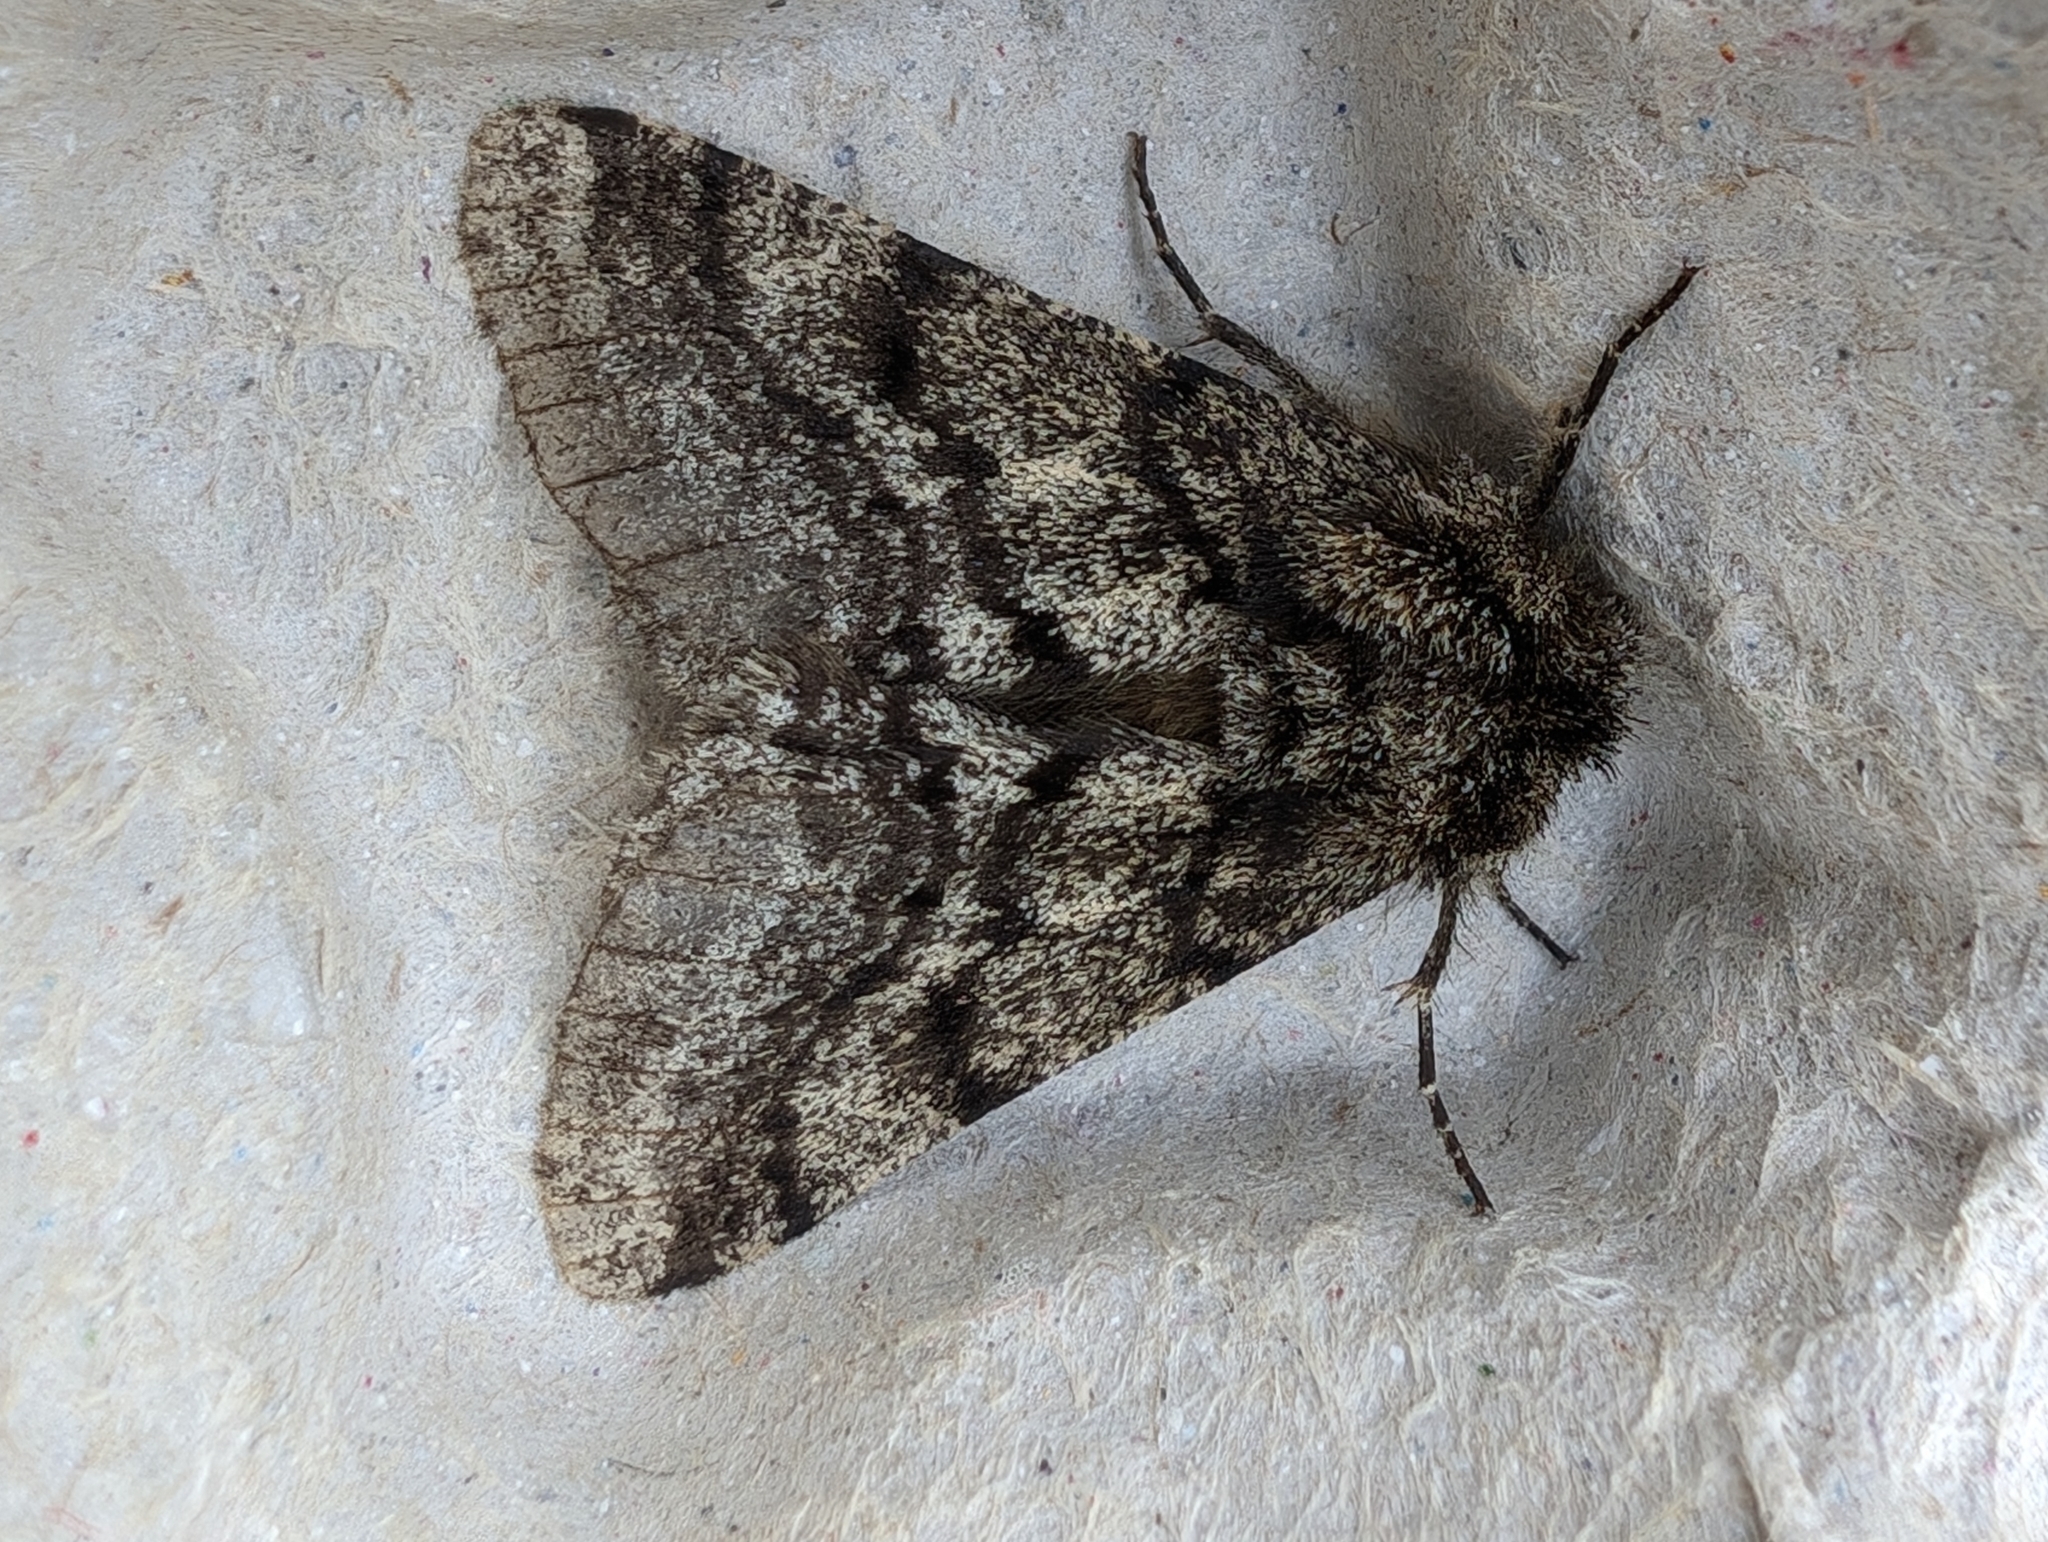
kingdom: Animalia
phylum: Arthropoda
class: Insecta
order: Lepidoptera
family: Geometridae
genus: Lycia
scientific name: Lycia hirtaria
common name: Brindled beauty
